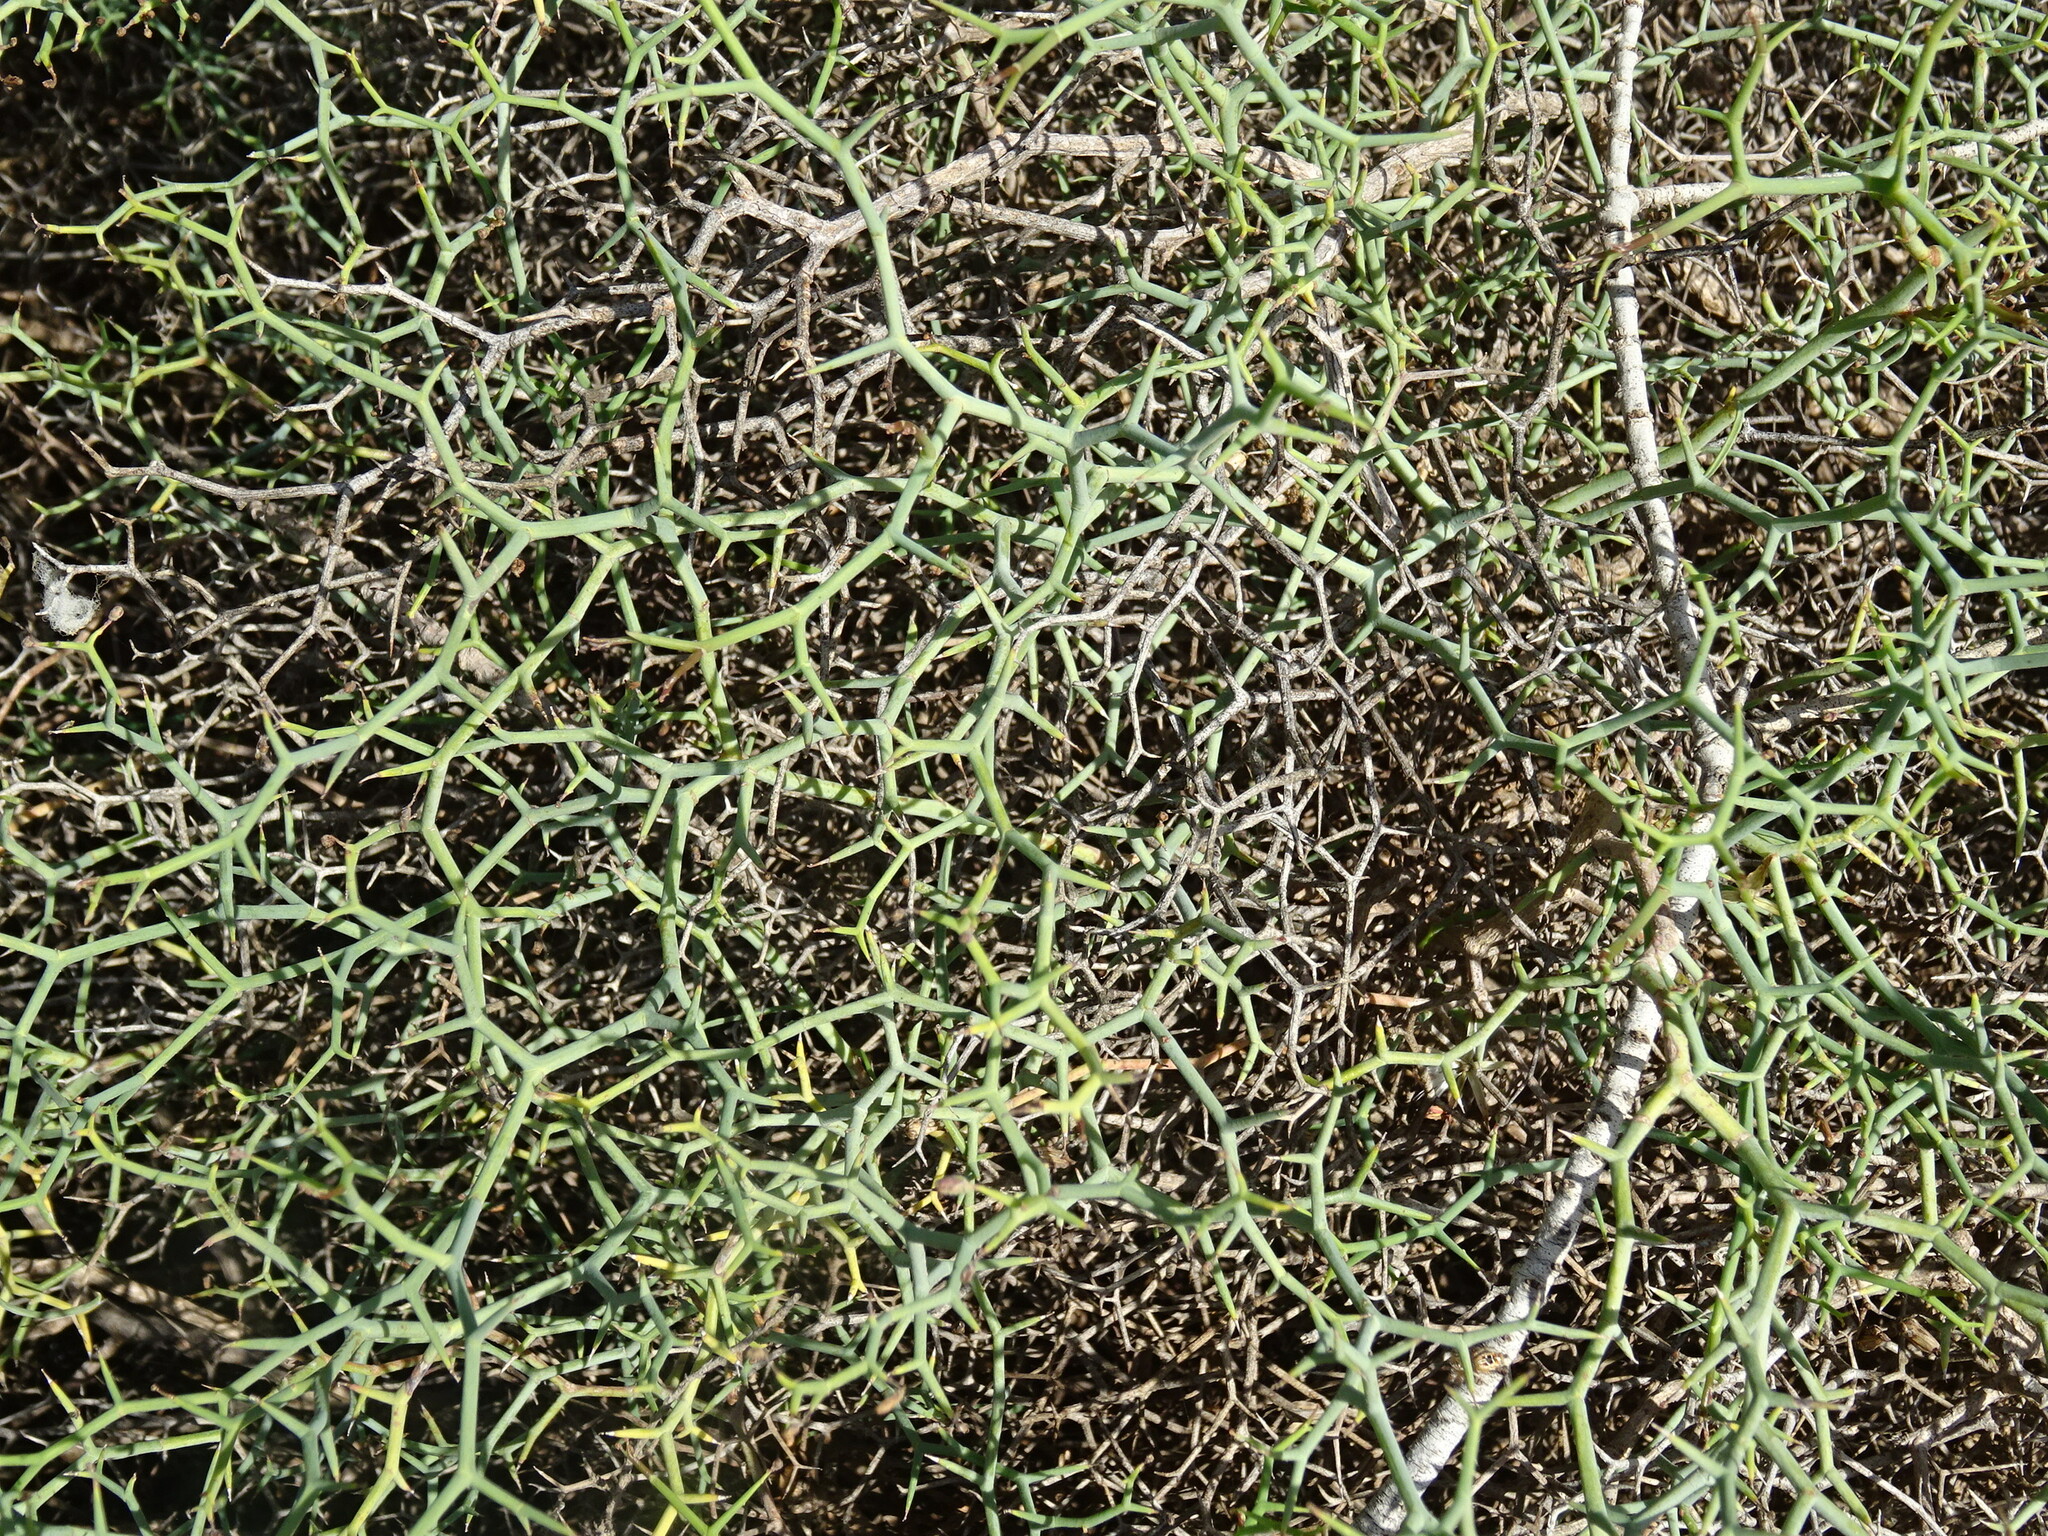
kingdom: Plantae
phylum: Tracheophyta
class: Magnoliopsida
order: Asterales
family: Asteraceae
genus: Launaea
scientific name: Launaea arborescens
